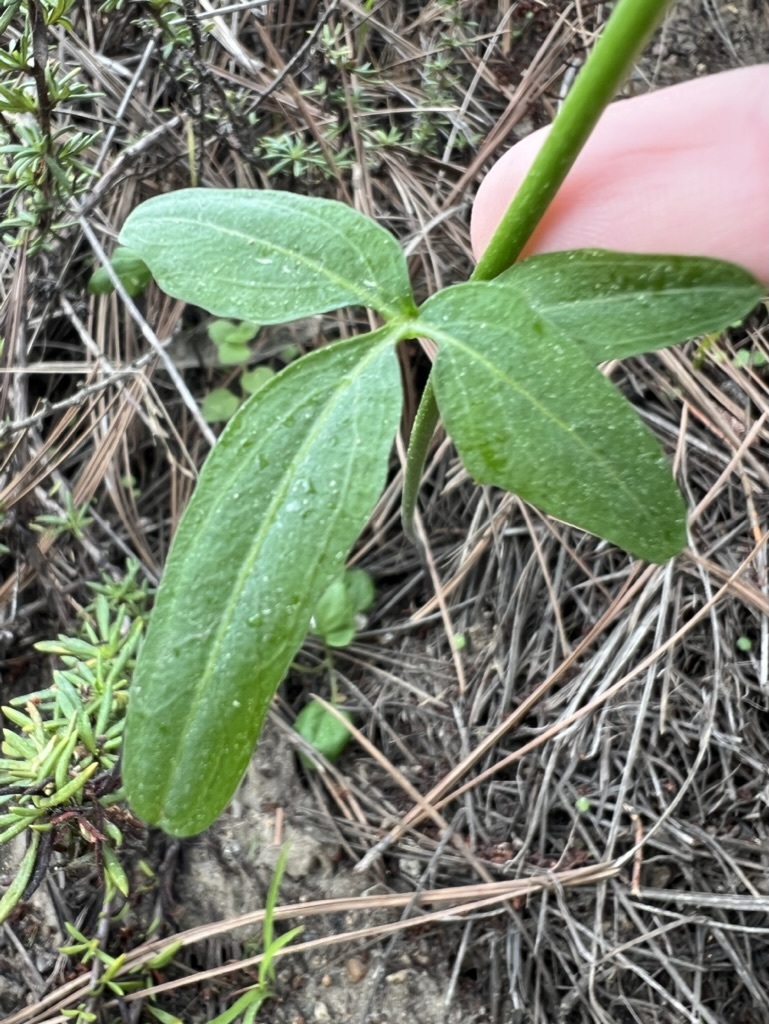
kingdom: Plantae
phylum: Tracheophyta
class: Magnoliopsida
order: Brassicales
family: Brassicaceae
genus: Cardamine
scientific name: Cardamine californica
